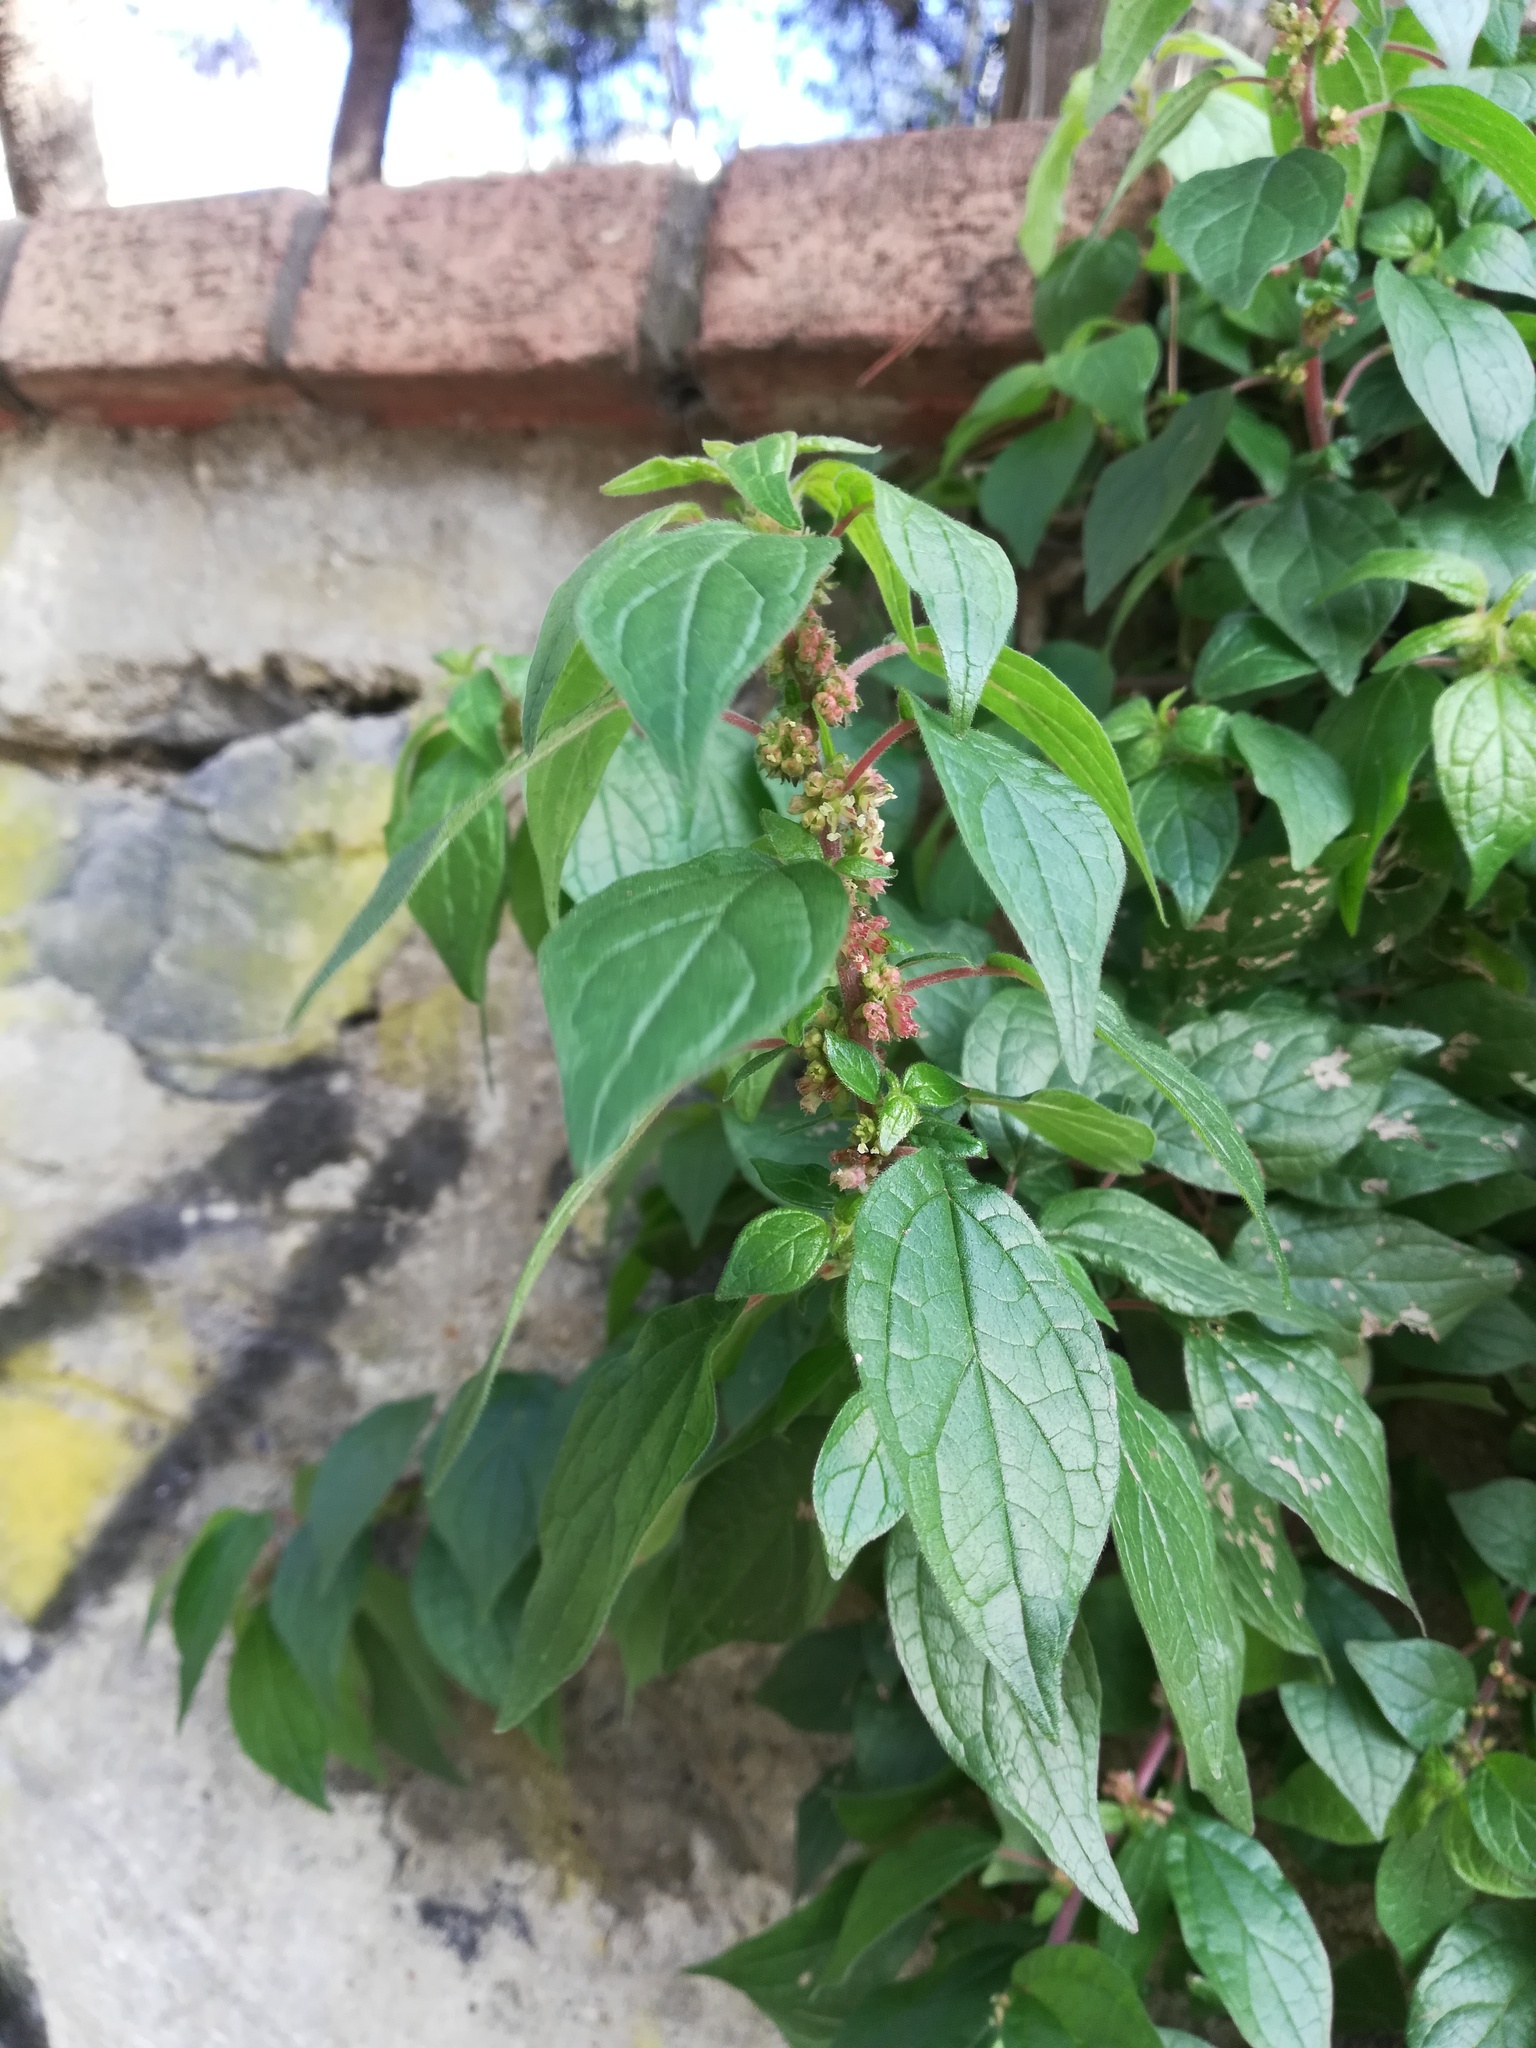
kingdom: Plantae
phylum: Tracheophyta
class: Magnoliopsida
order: Rosales
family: Urticaceae
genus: Parietaria
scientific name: Parietaria officinalis
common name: Eastern pellitory-of-the-wall
